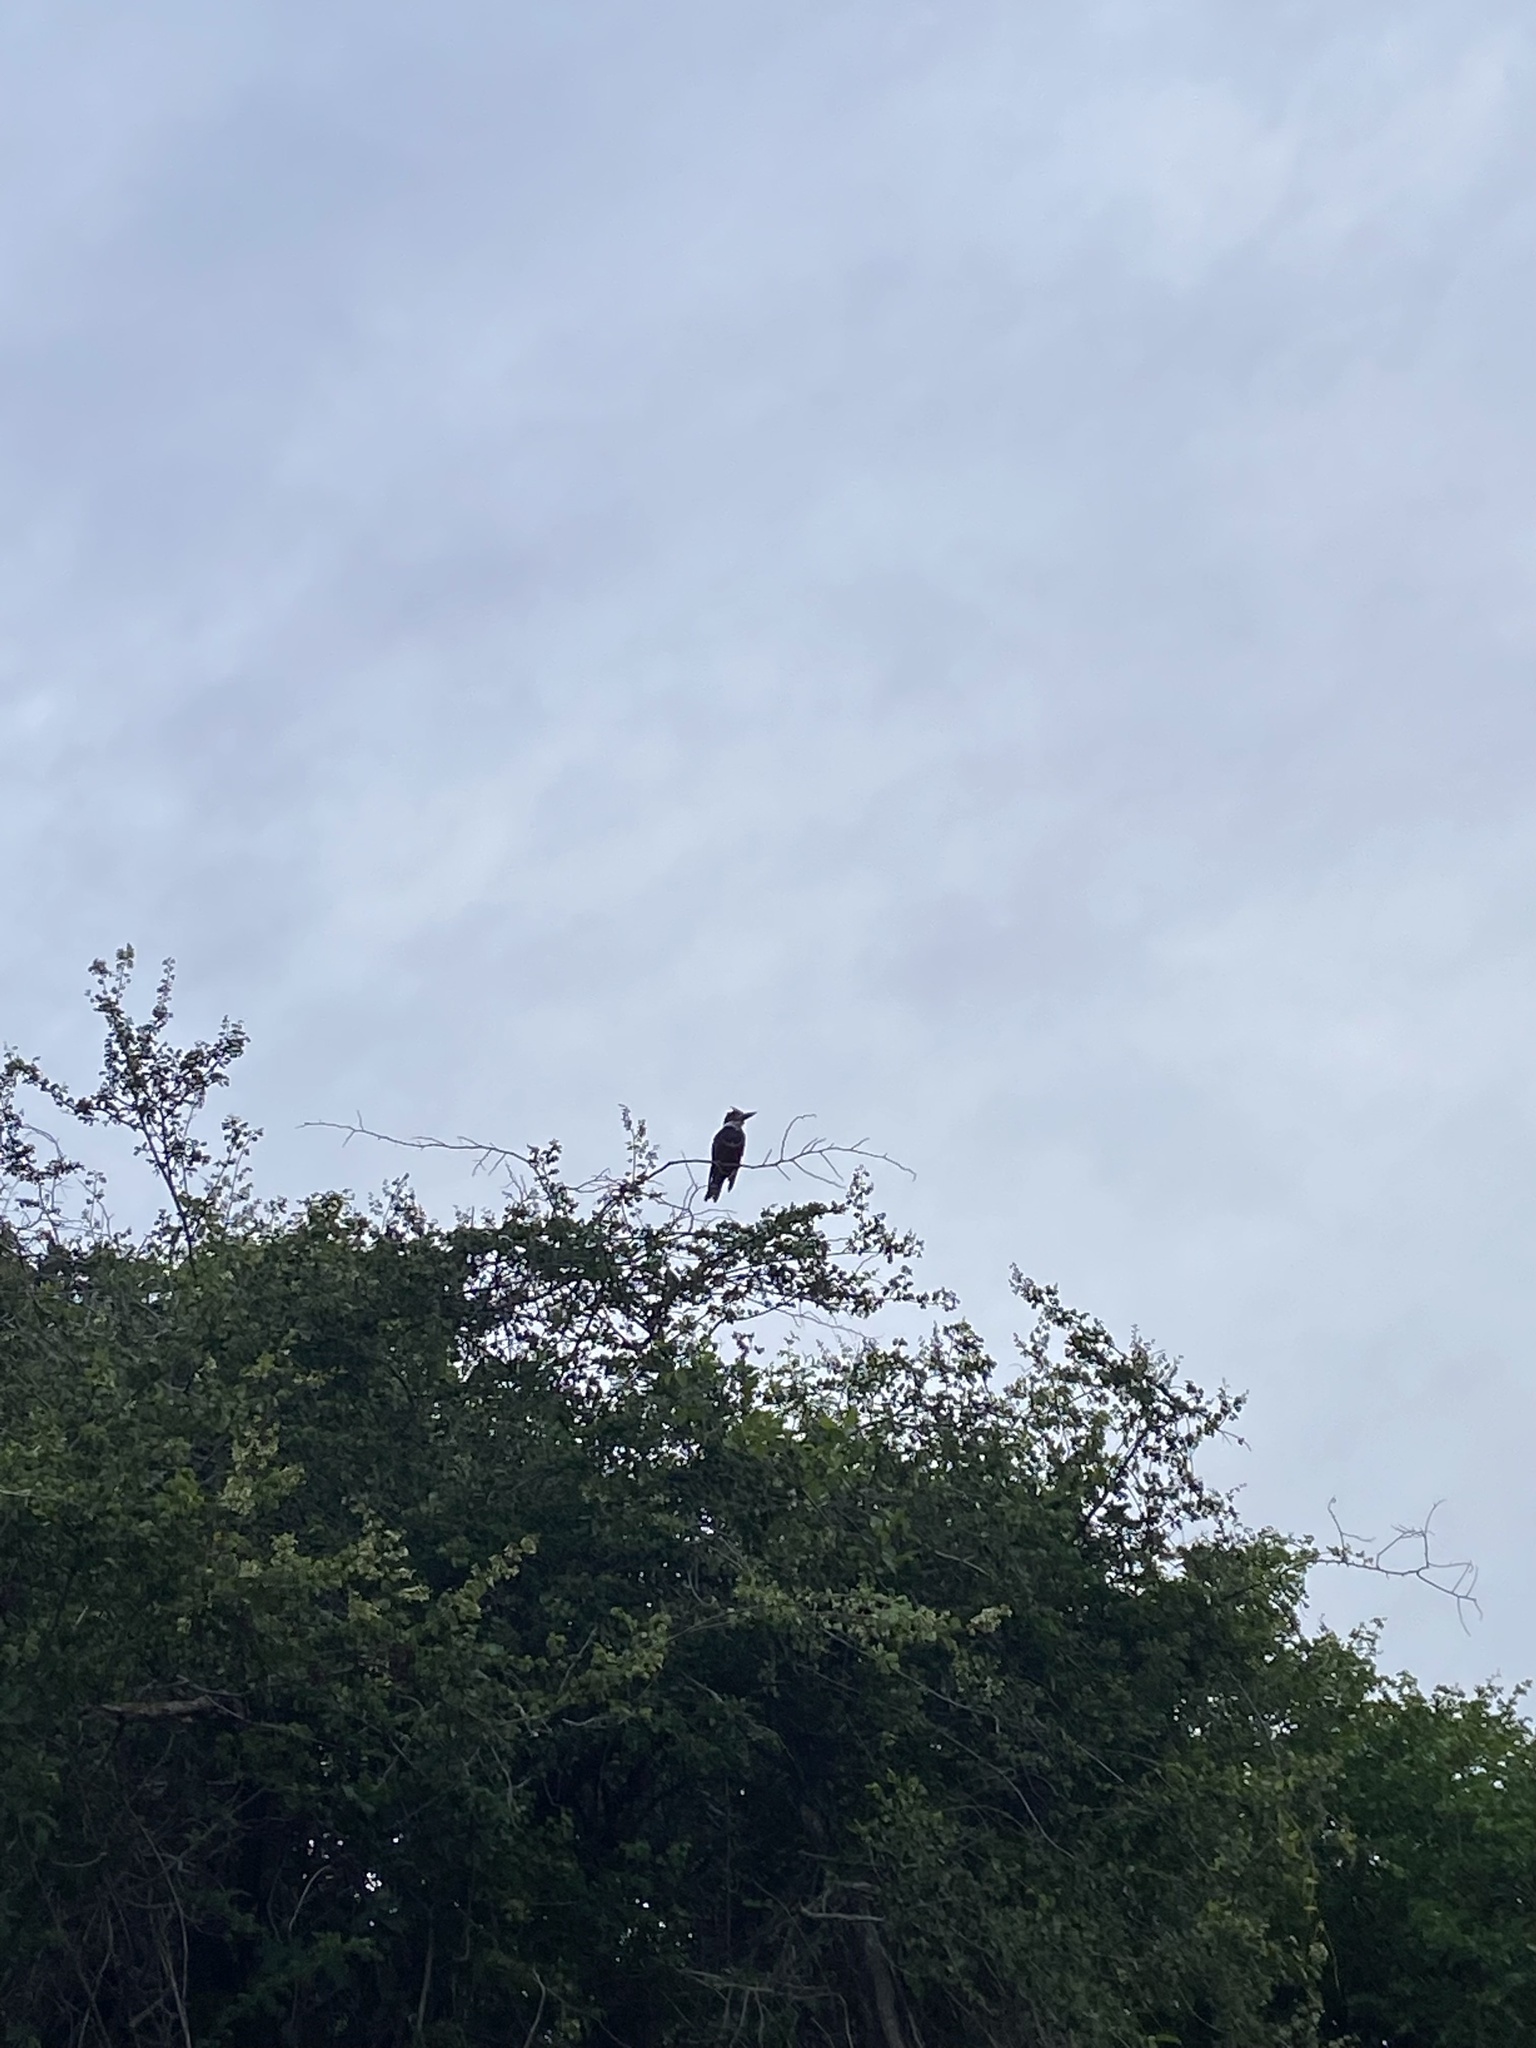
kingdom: Animalia
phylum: Chordata
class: Aves
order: Coraciiformes
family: Alcedinidae
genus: Megaceryle
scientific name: Megaceryle torquata
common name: Ringed kingfisher
